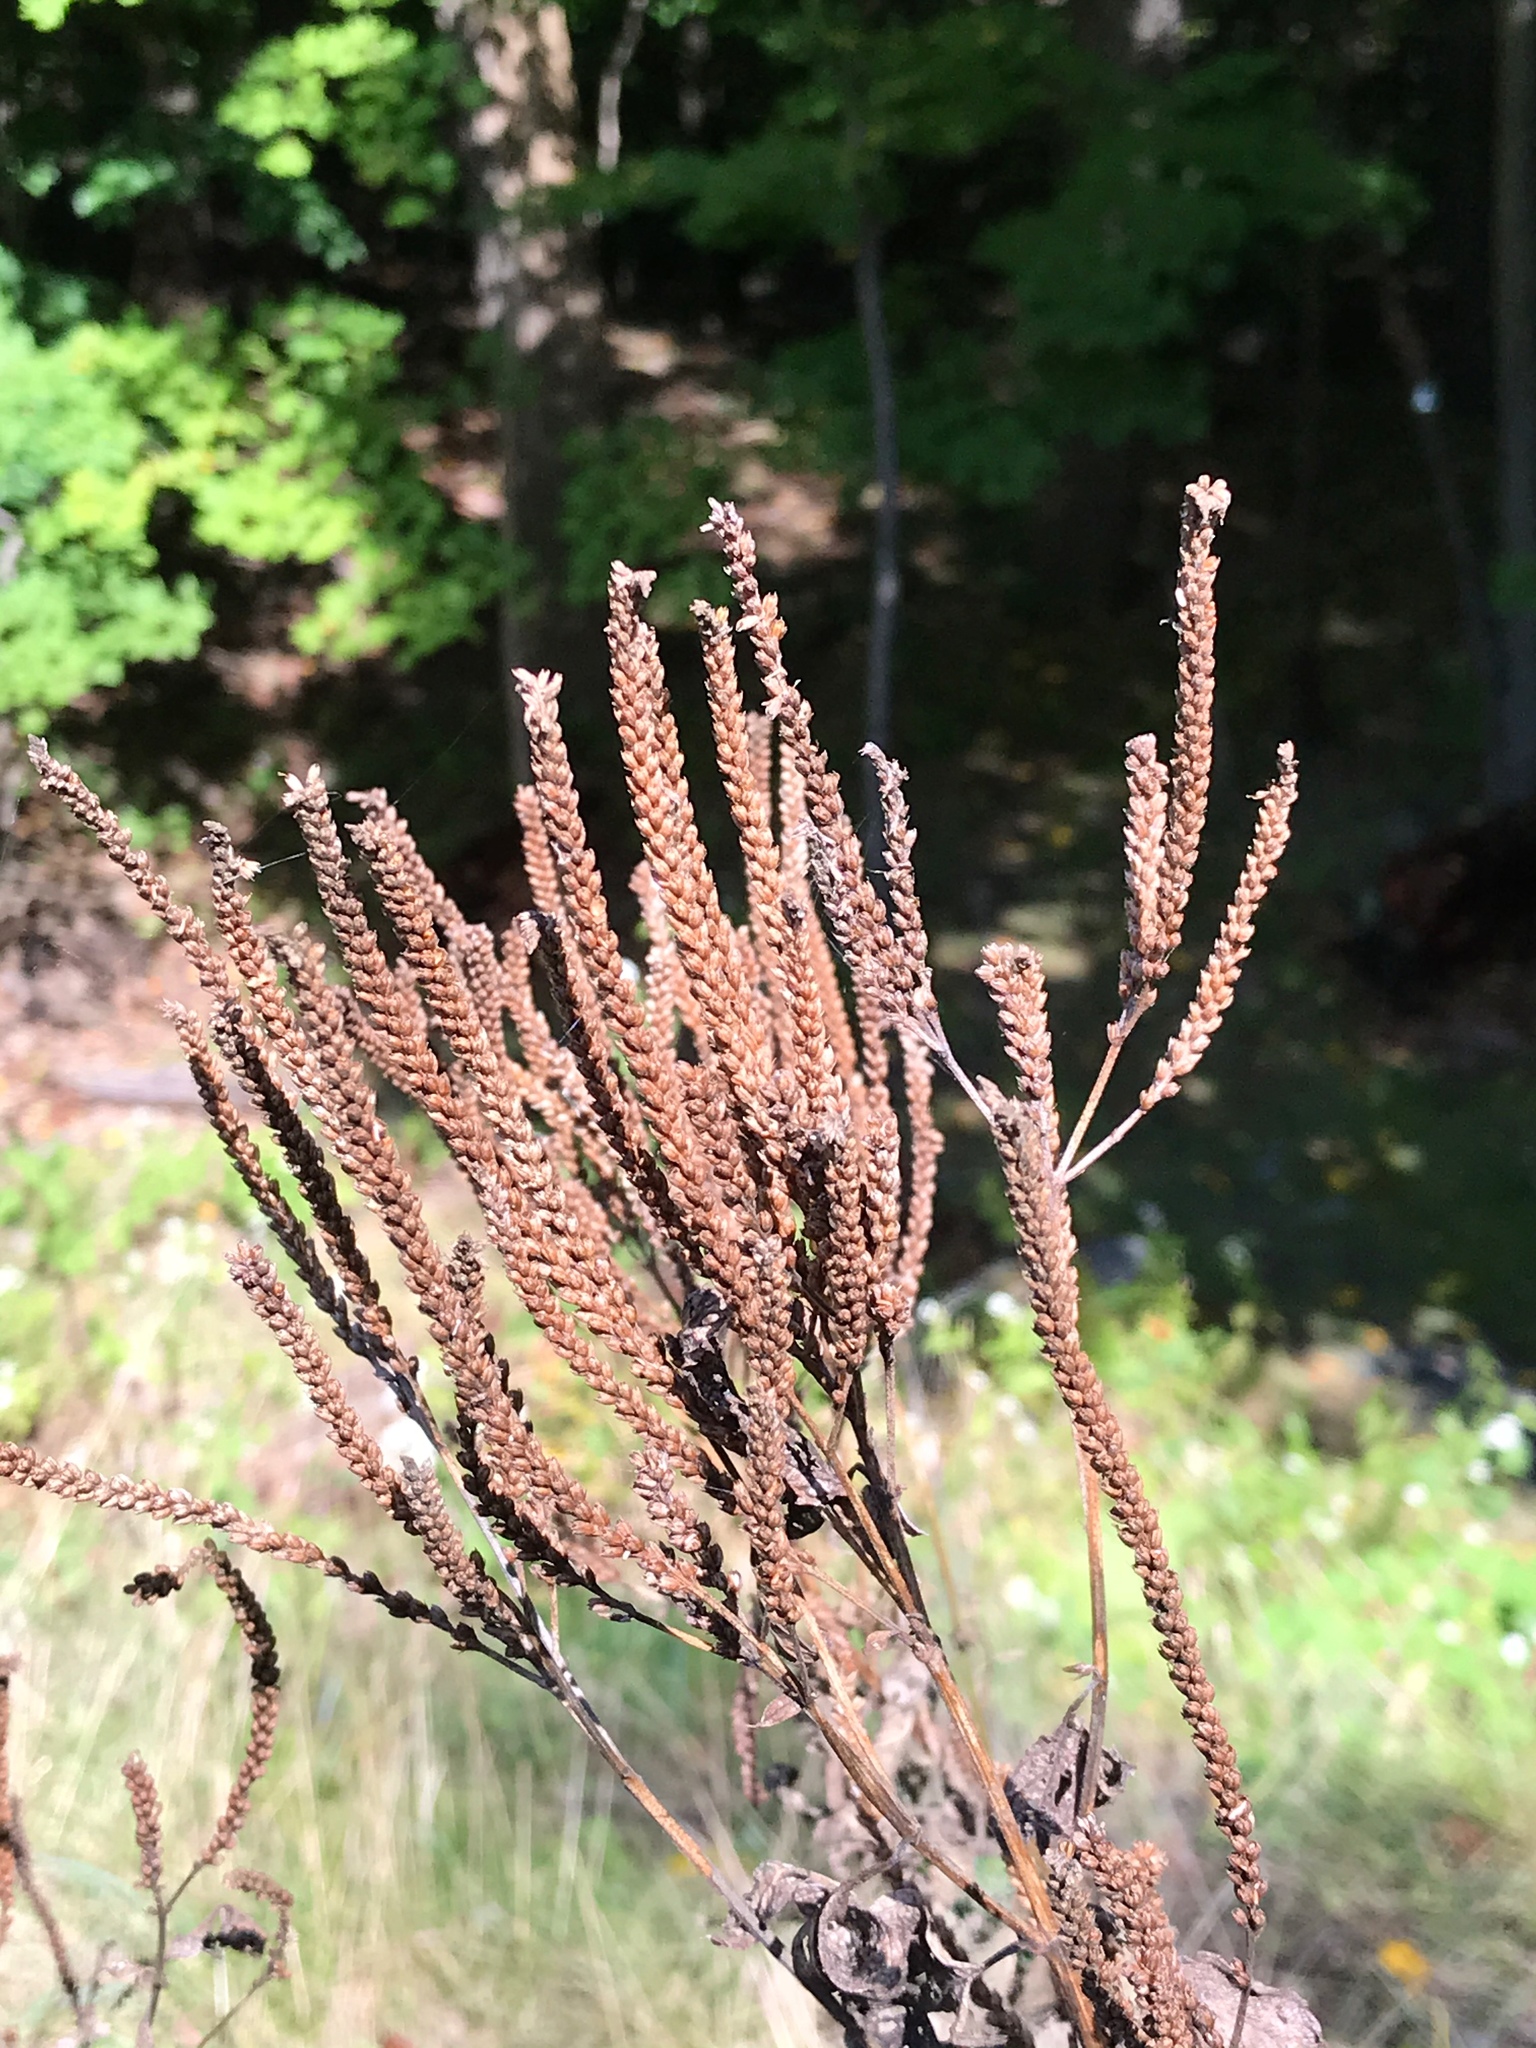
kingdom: Plantae
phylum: Tracheophyta
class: Magnoliopsida
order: Lamiales
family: Verbenaceae
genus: Verbena
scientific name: Verbena hastata
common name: American blue vervain
